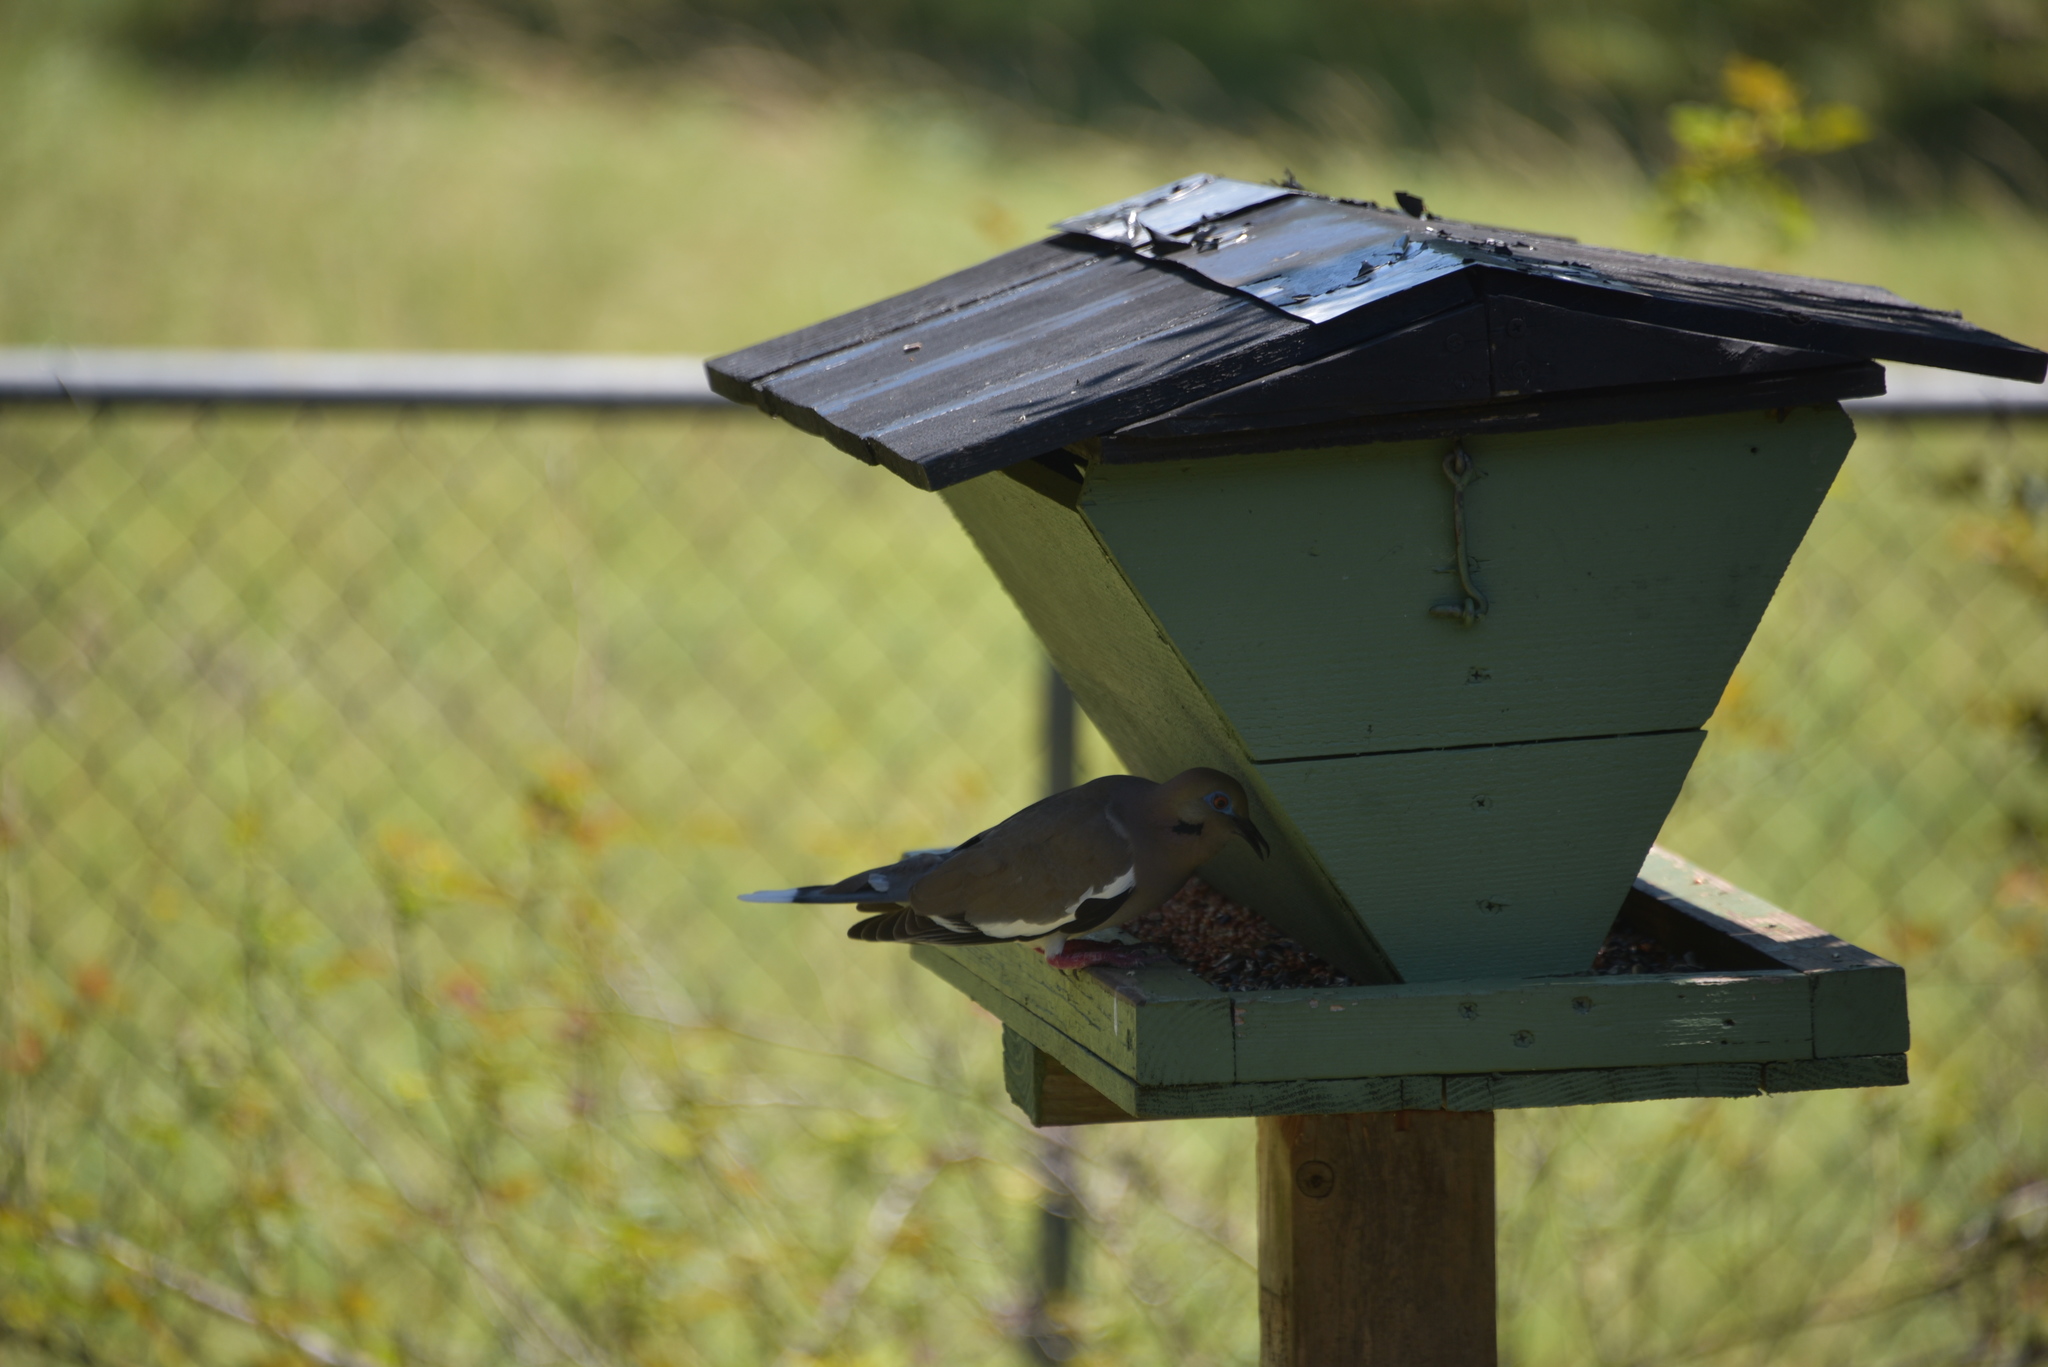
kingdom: Animalia
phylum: Chordata
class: Aves
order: Columbiformes
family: Columbidae
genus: Zenaida
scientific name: Zenaida asiatica
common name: White-winged dove
